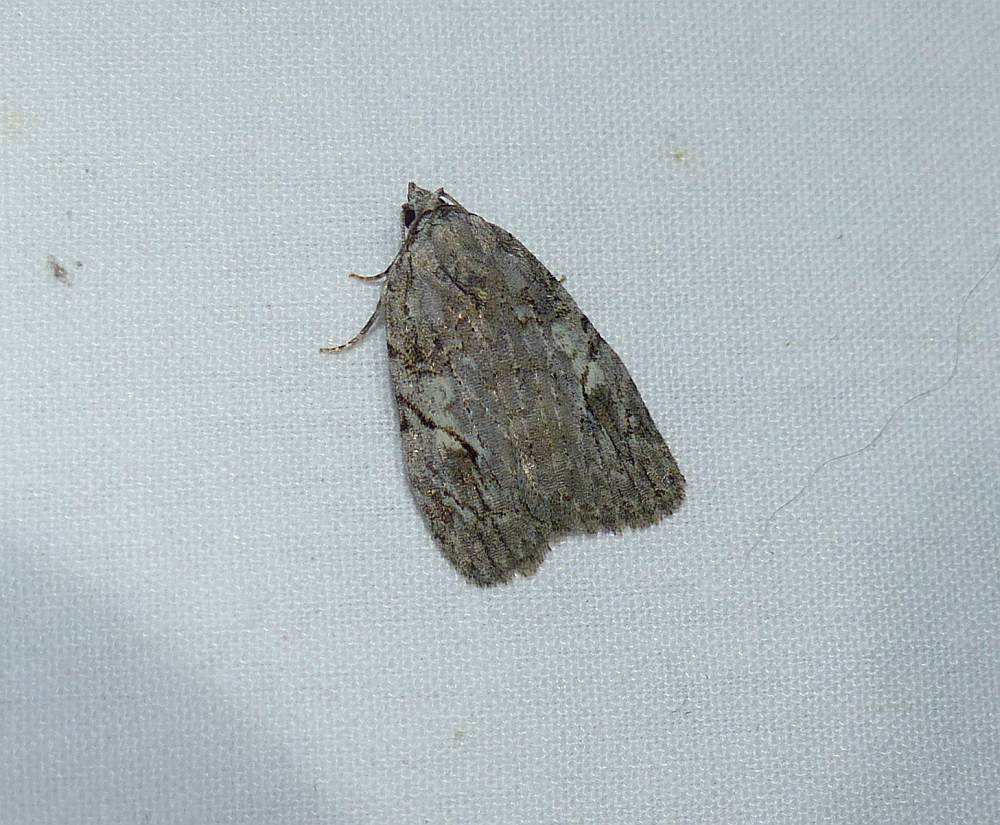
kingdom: Animalia
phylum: Arthropoda
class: Insecta
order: Lepidoptera
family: Noctuidae
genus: Balsa
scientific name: Balsa labecula
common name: White-blotched balsa moth
